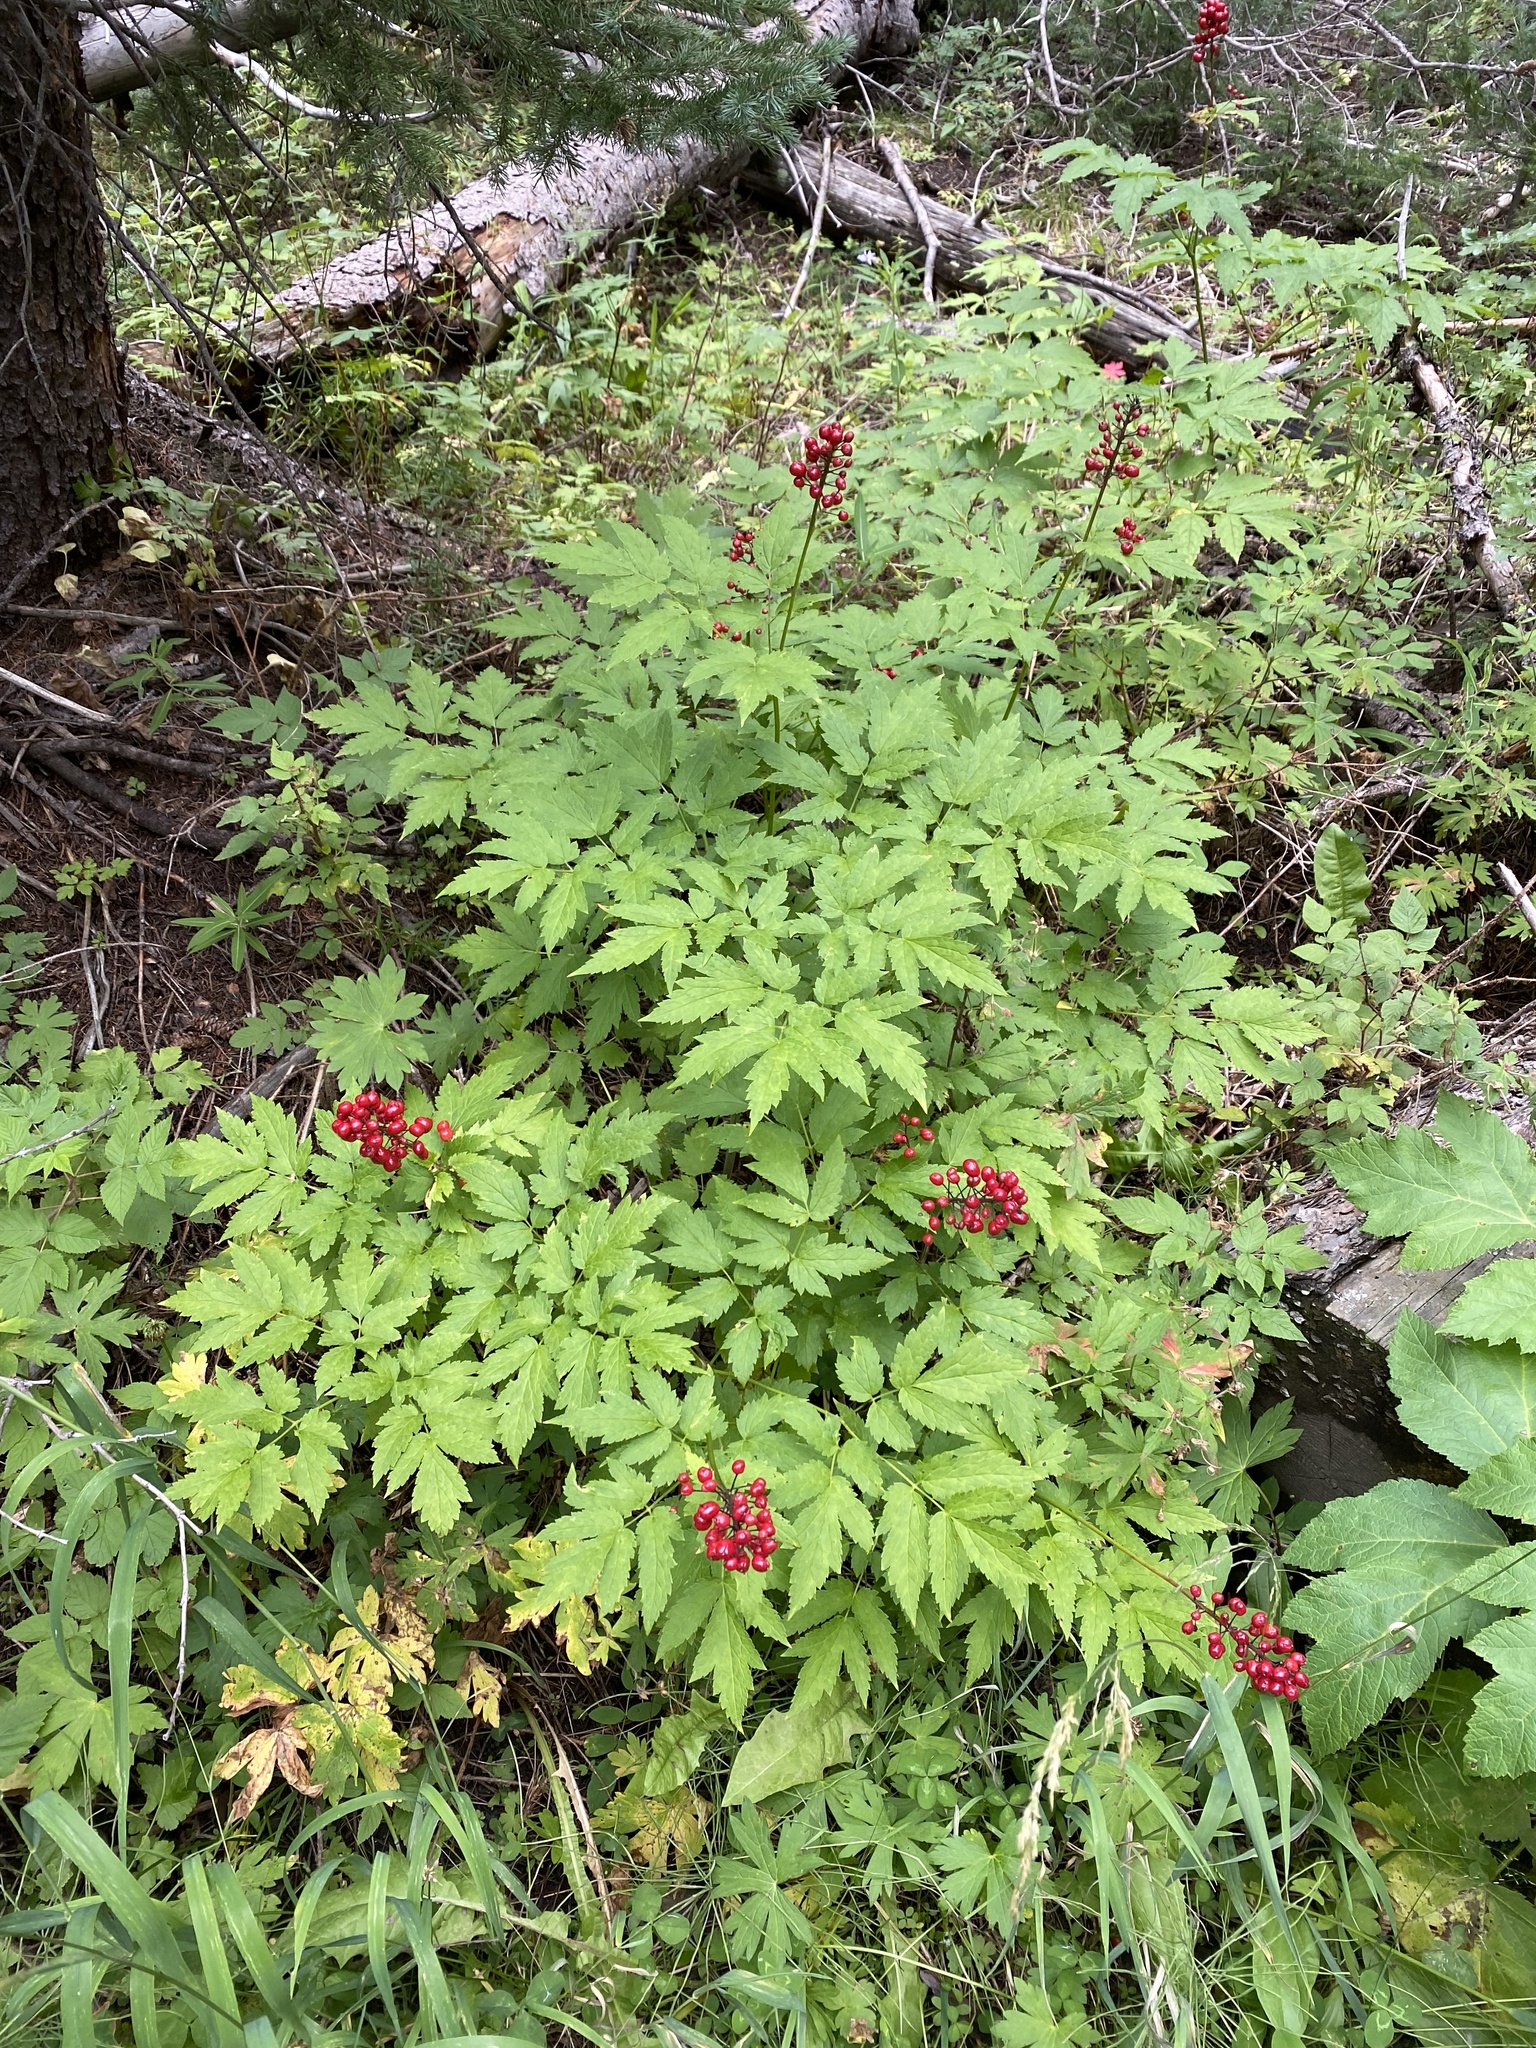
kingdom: Plantae
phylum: Tracheophyta
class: Magnoliopsida
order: Ranunculales
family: Ranunculaceae
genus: Actaea
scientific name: Actaea rubra
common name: Red baneberry
